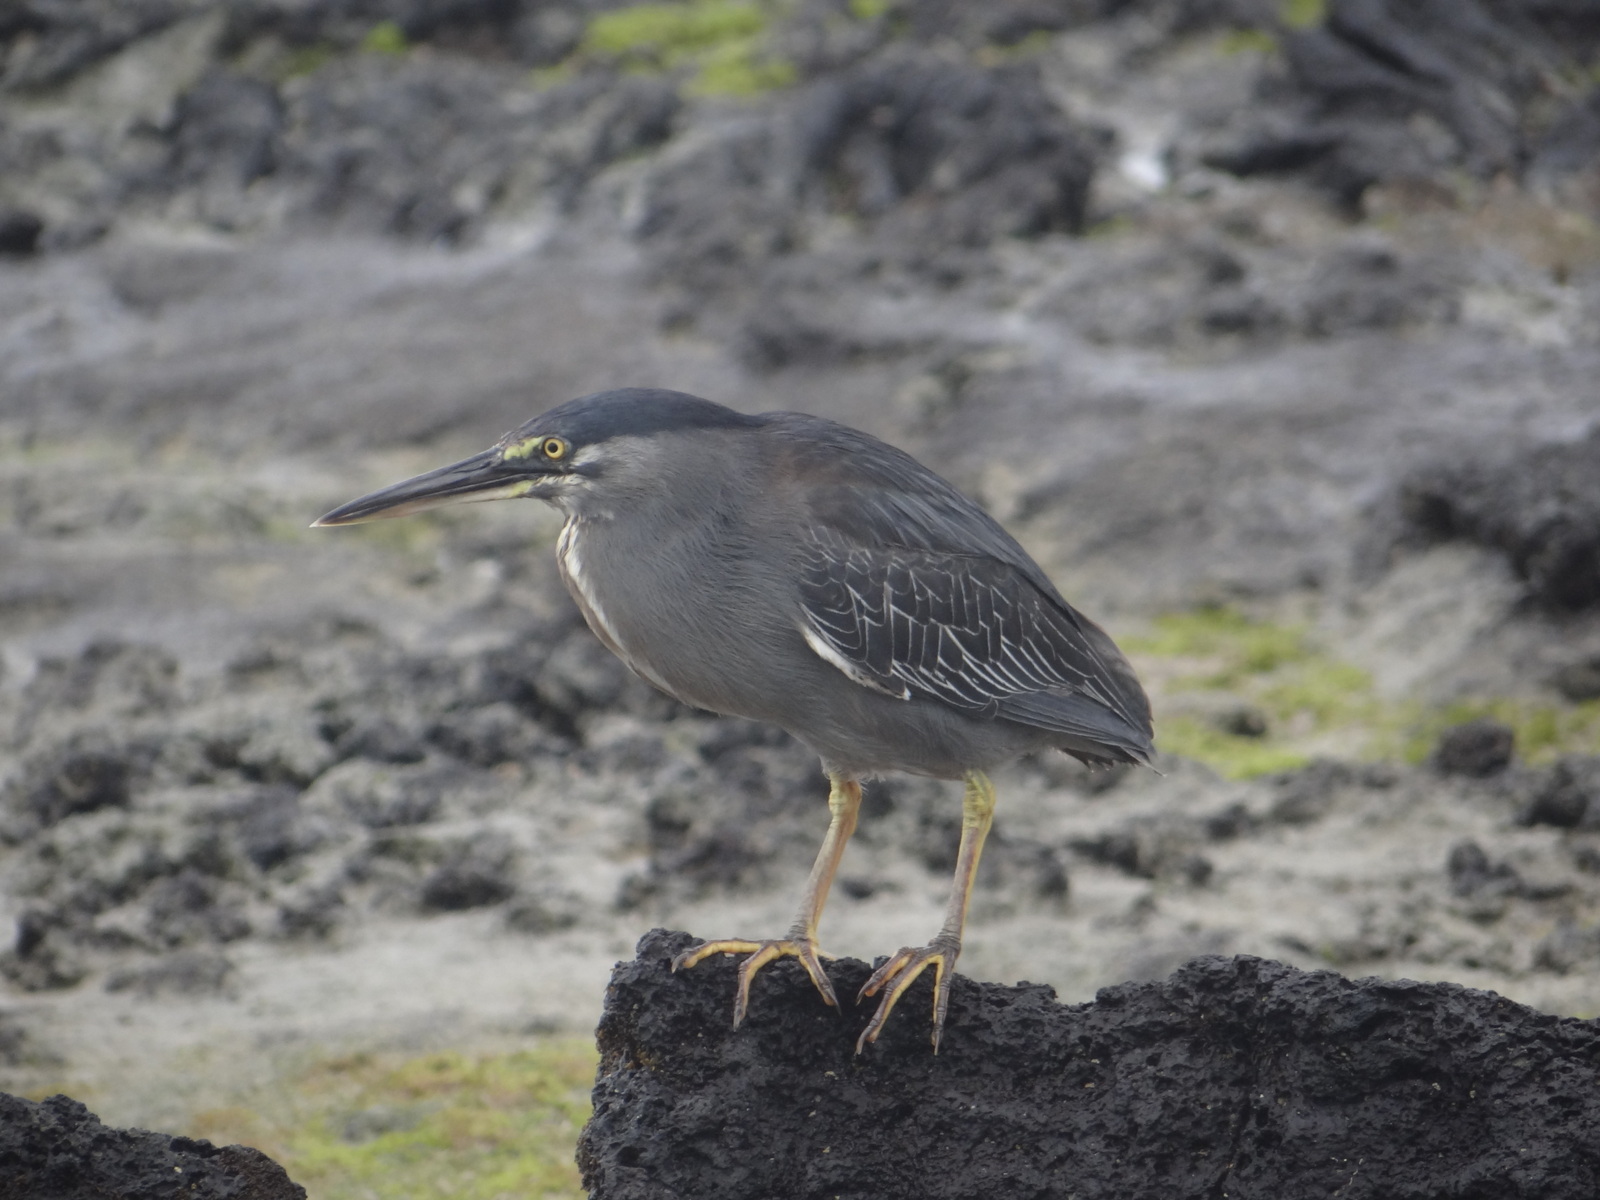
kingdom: Animalia
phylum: Chordata
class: Aves
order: Pelecaniformes
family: Ardeidae
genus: Butorides
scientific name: Butorides striata
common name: Striated heron
